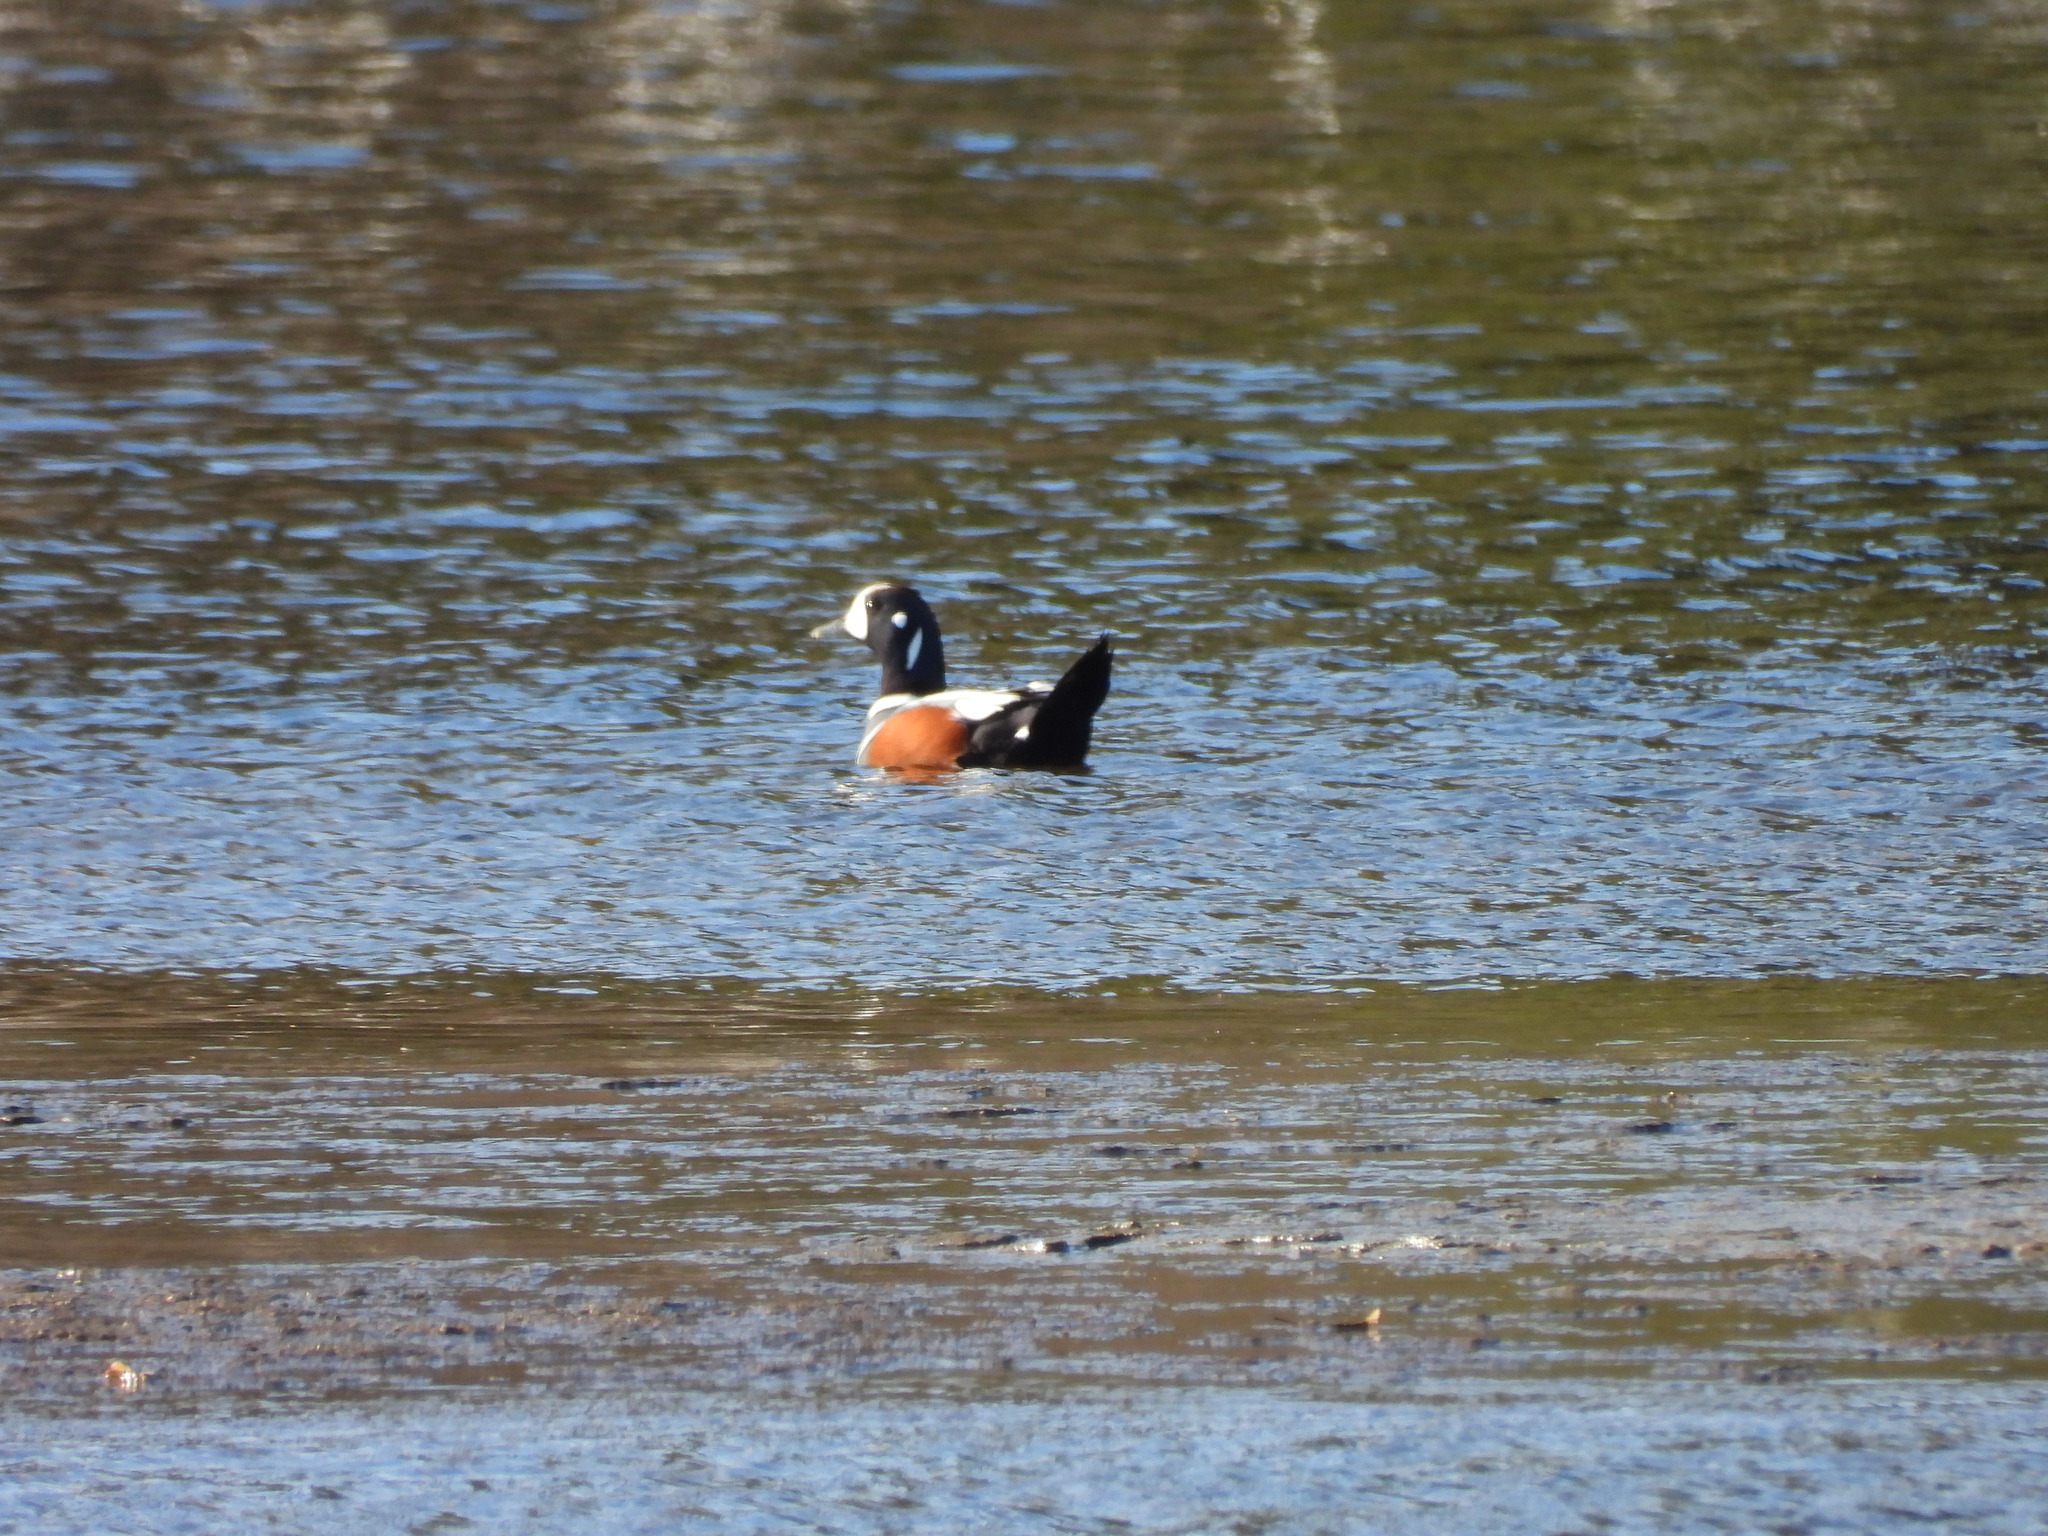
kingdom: Animalia
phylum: Chordata
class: Aves
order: Anseriformes
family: Anatidae
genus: Histrionicus
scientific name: Histrionicus histrionicus
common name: Harlequin duck
